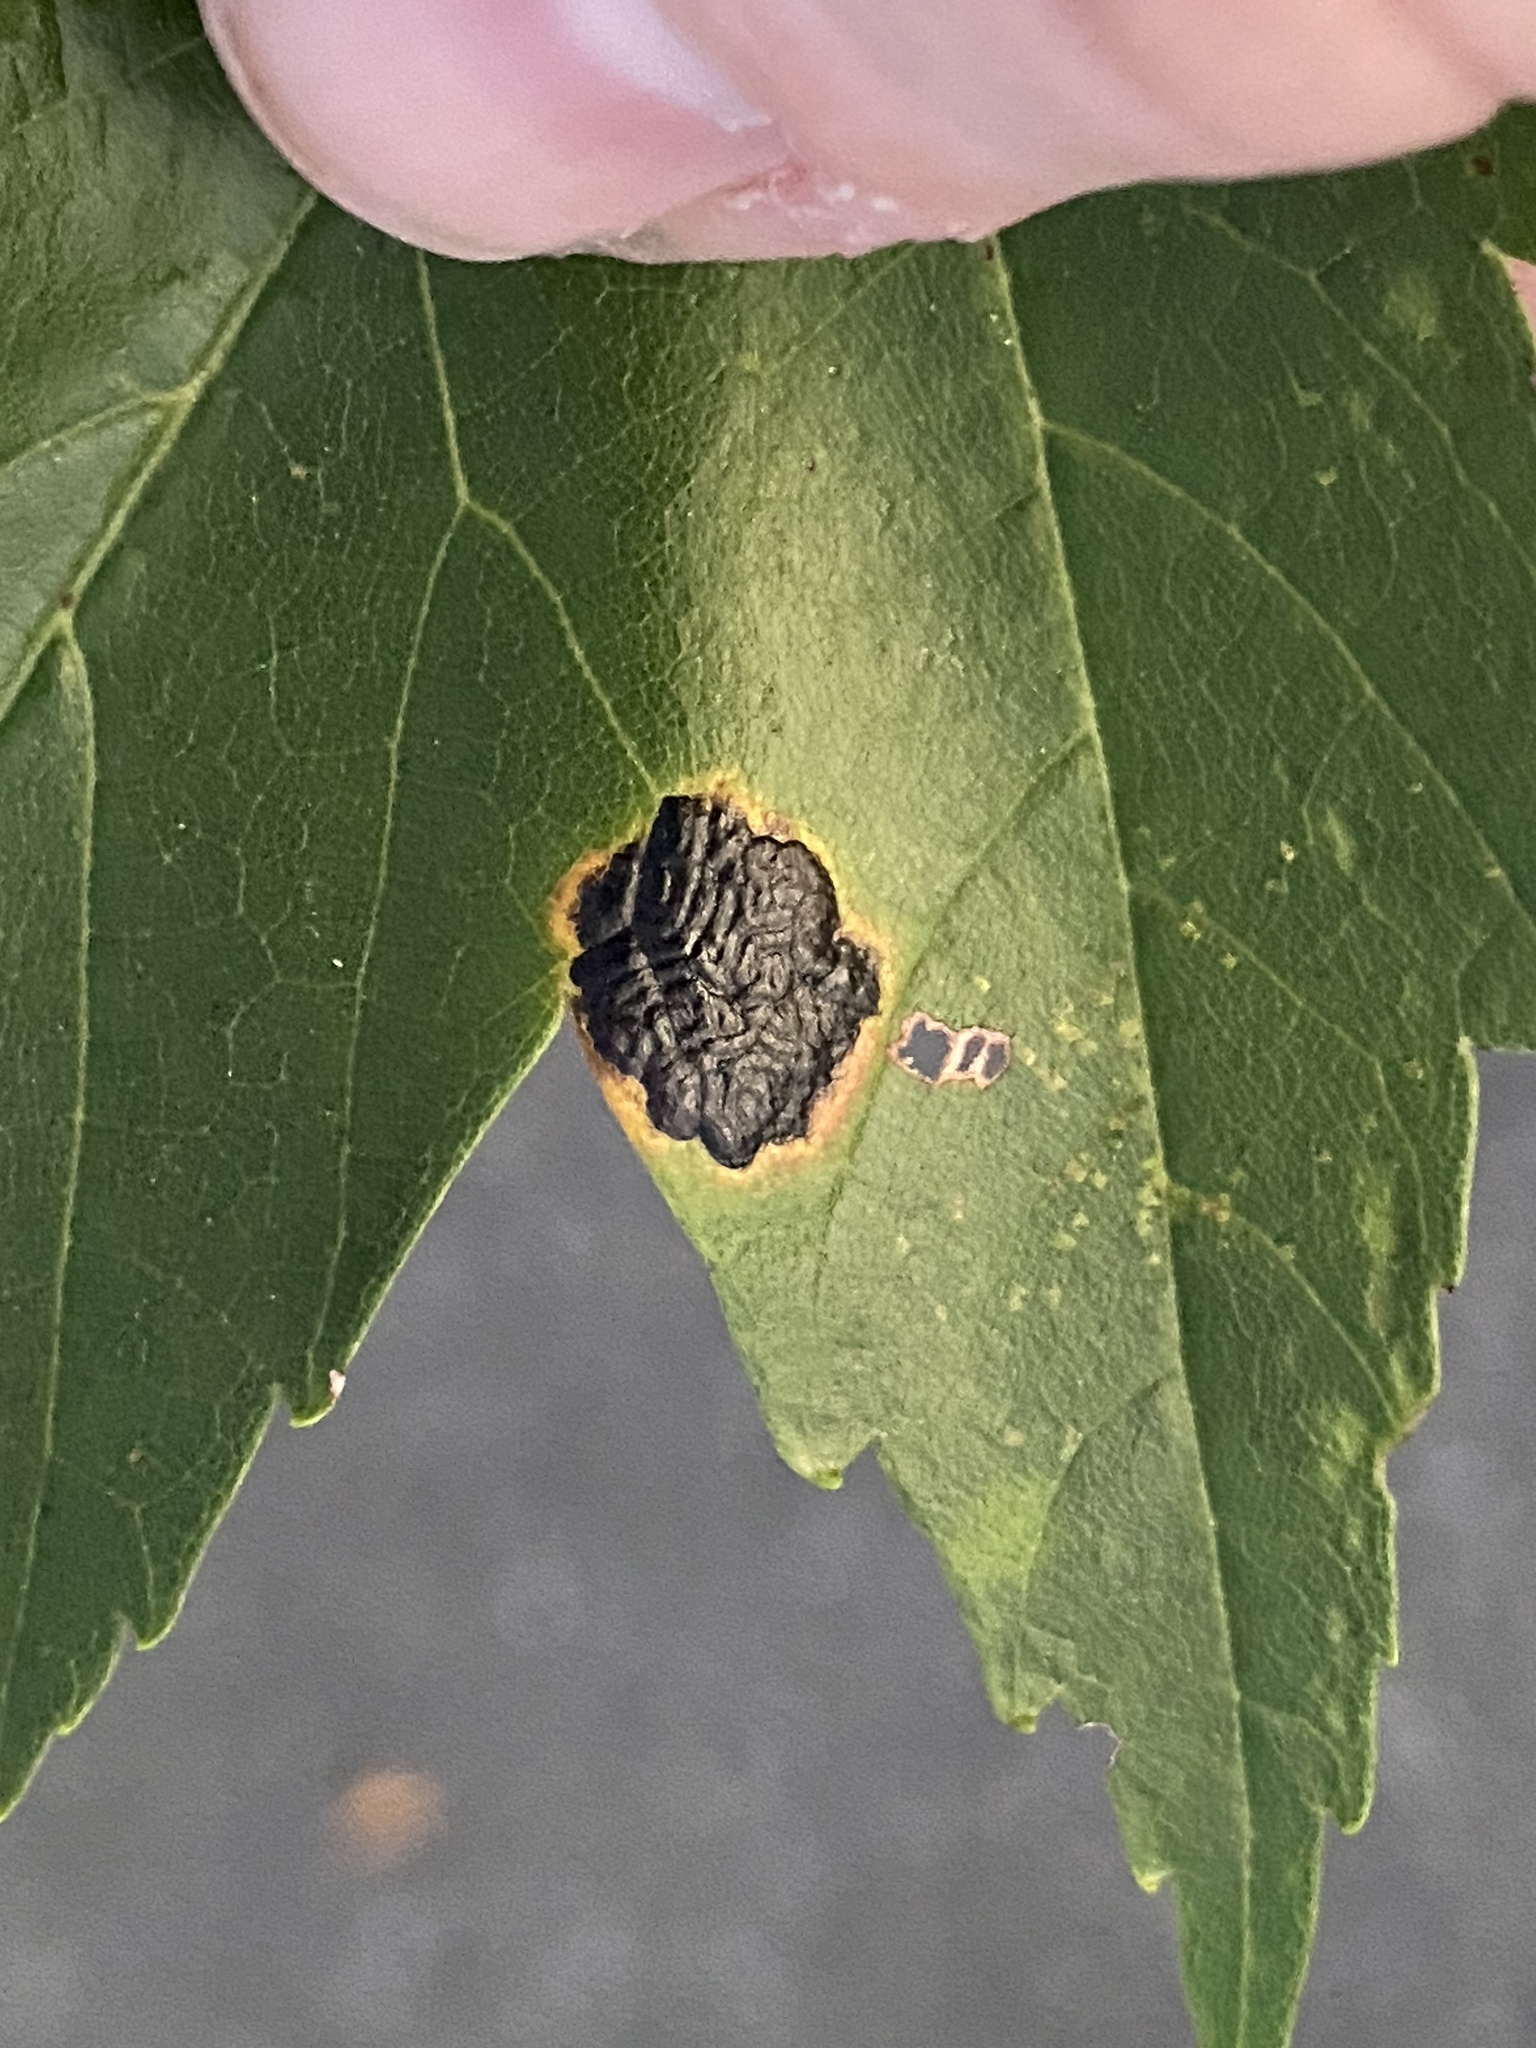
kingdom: Fungi
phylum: Ascomycota
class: Leotiomycetes
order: Rhytismatales
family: Rhytismataceae
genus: Rhytisma
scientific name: Rhytisma americanum
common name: American tar spot
